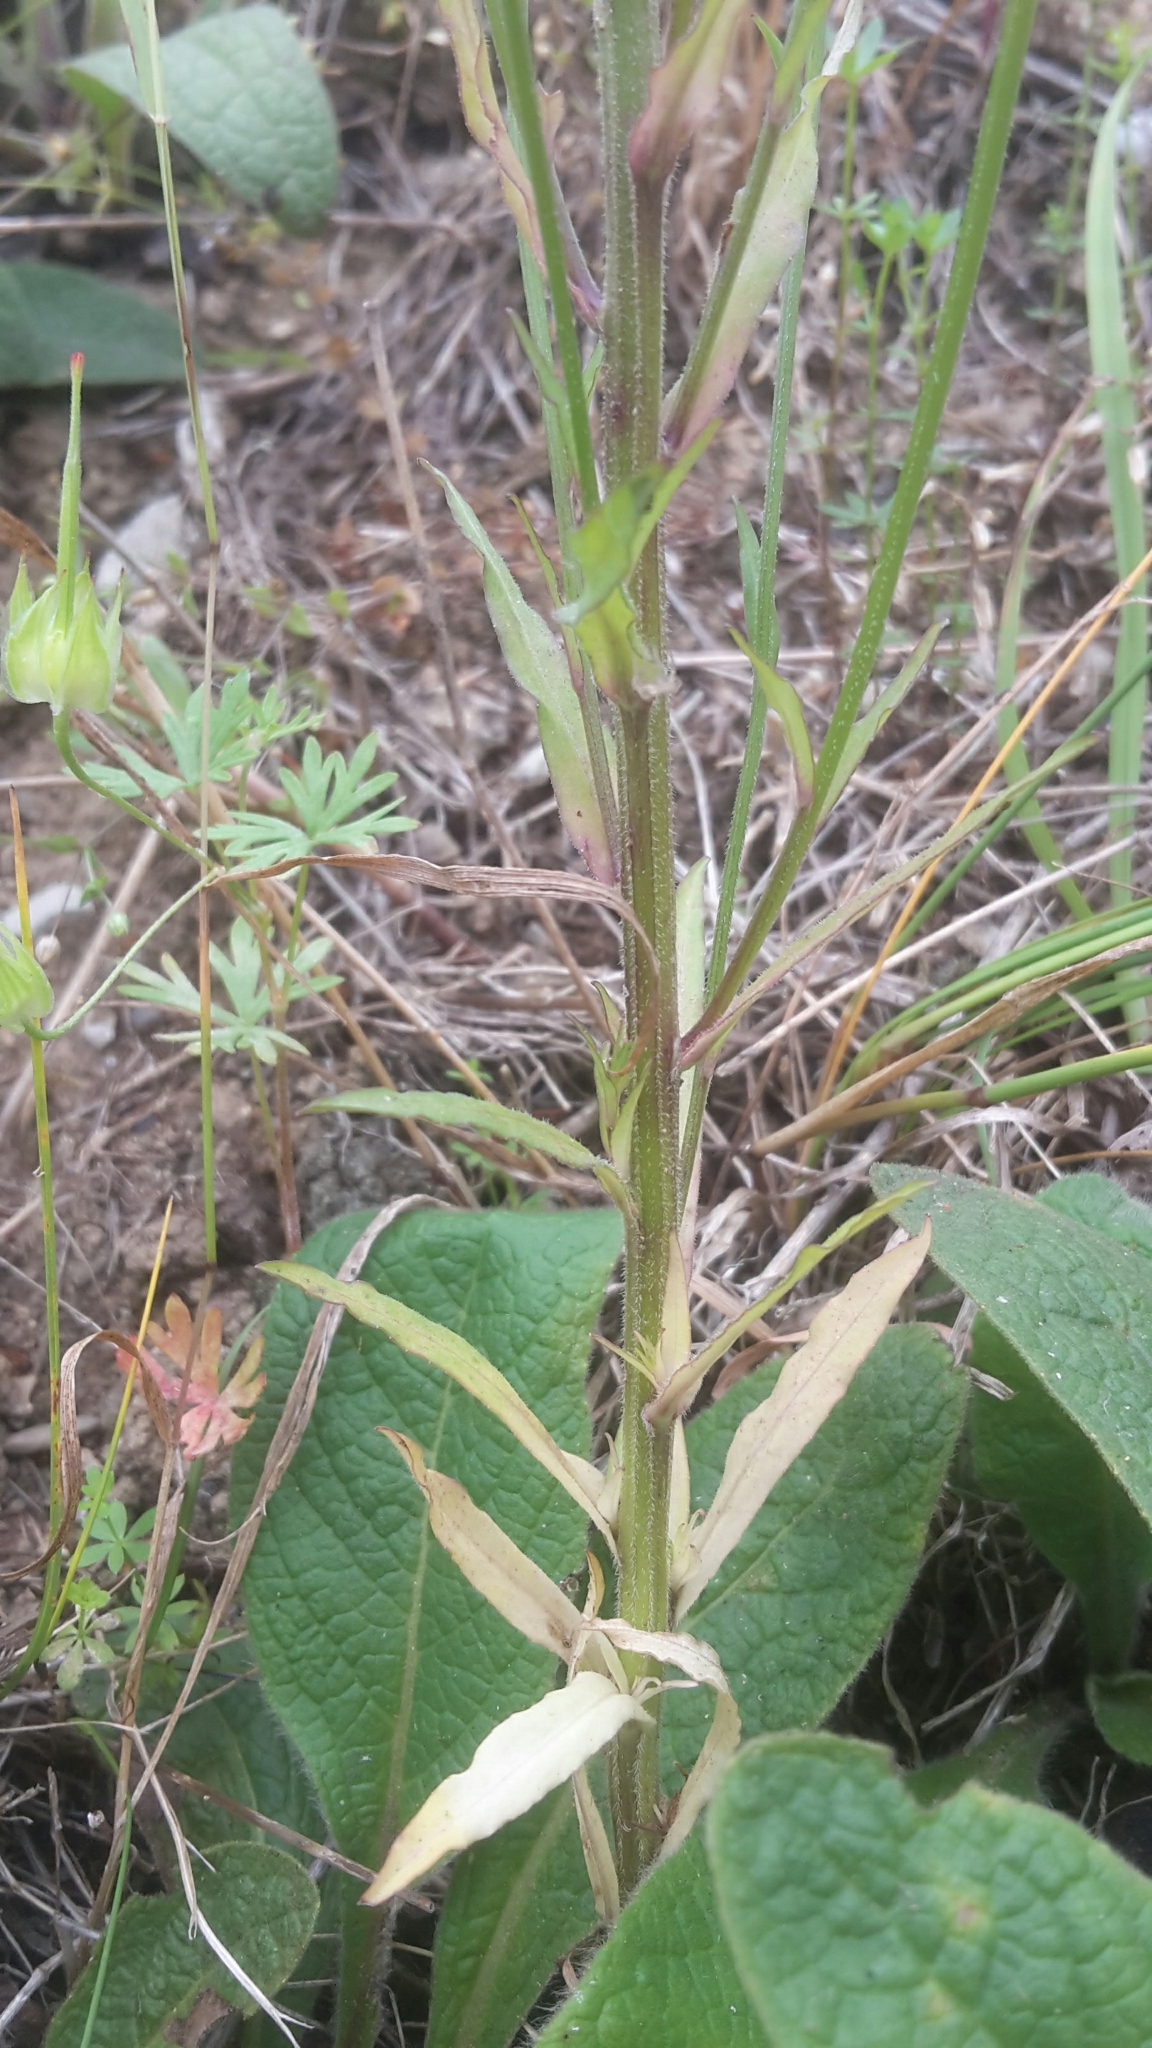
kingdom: Plantae
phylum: Tracheophyta
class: Magnoliopsida
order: Asterales
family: Campanulaceae
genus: Campanula
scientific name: Campanula rapunculus
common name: Rampion bellflower
